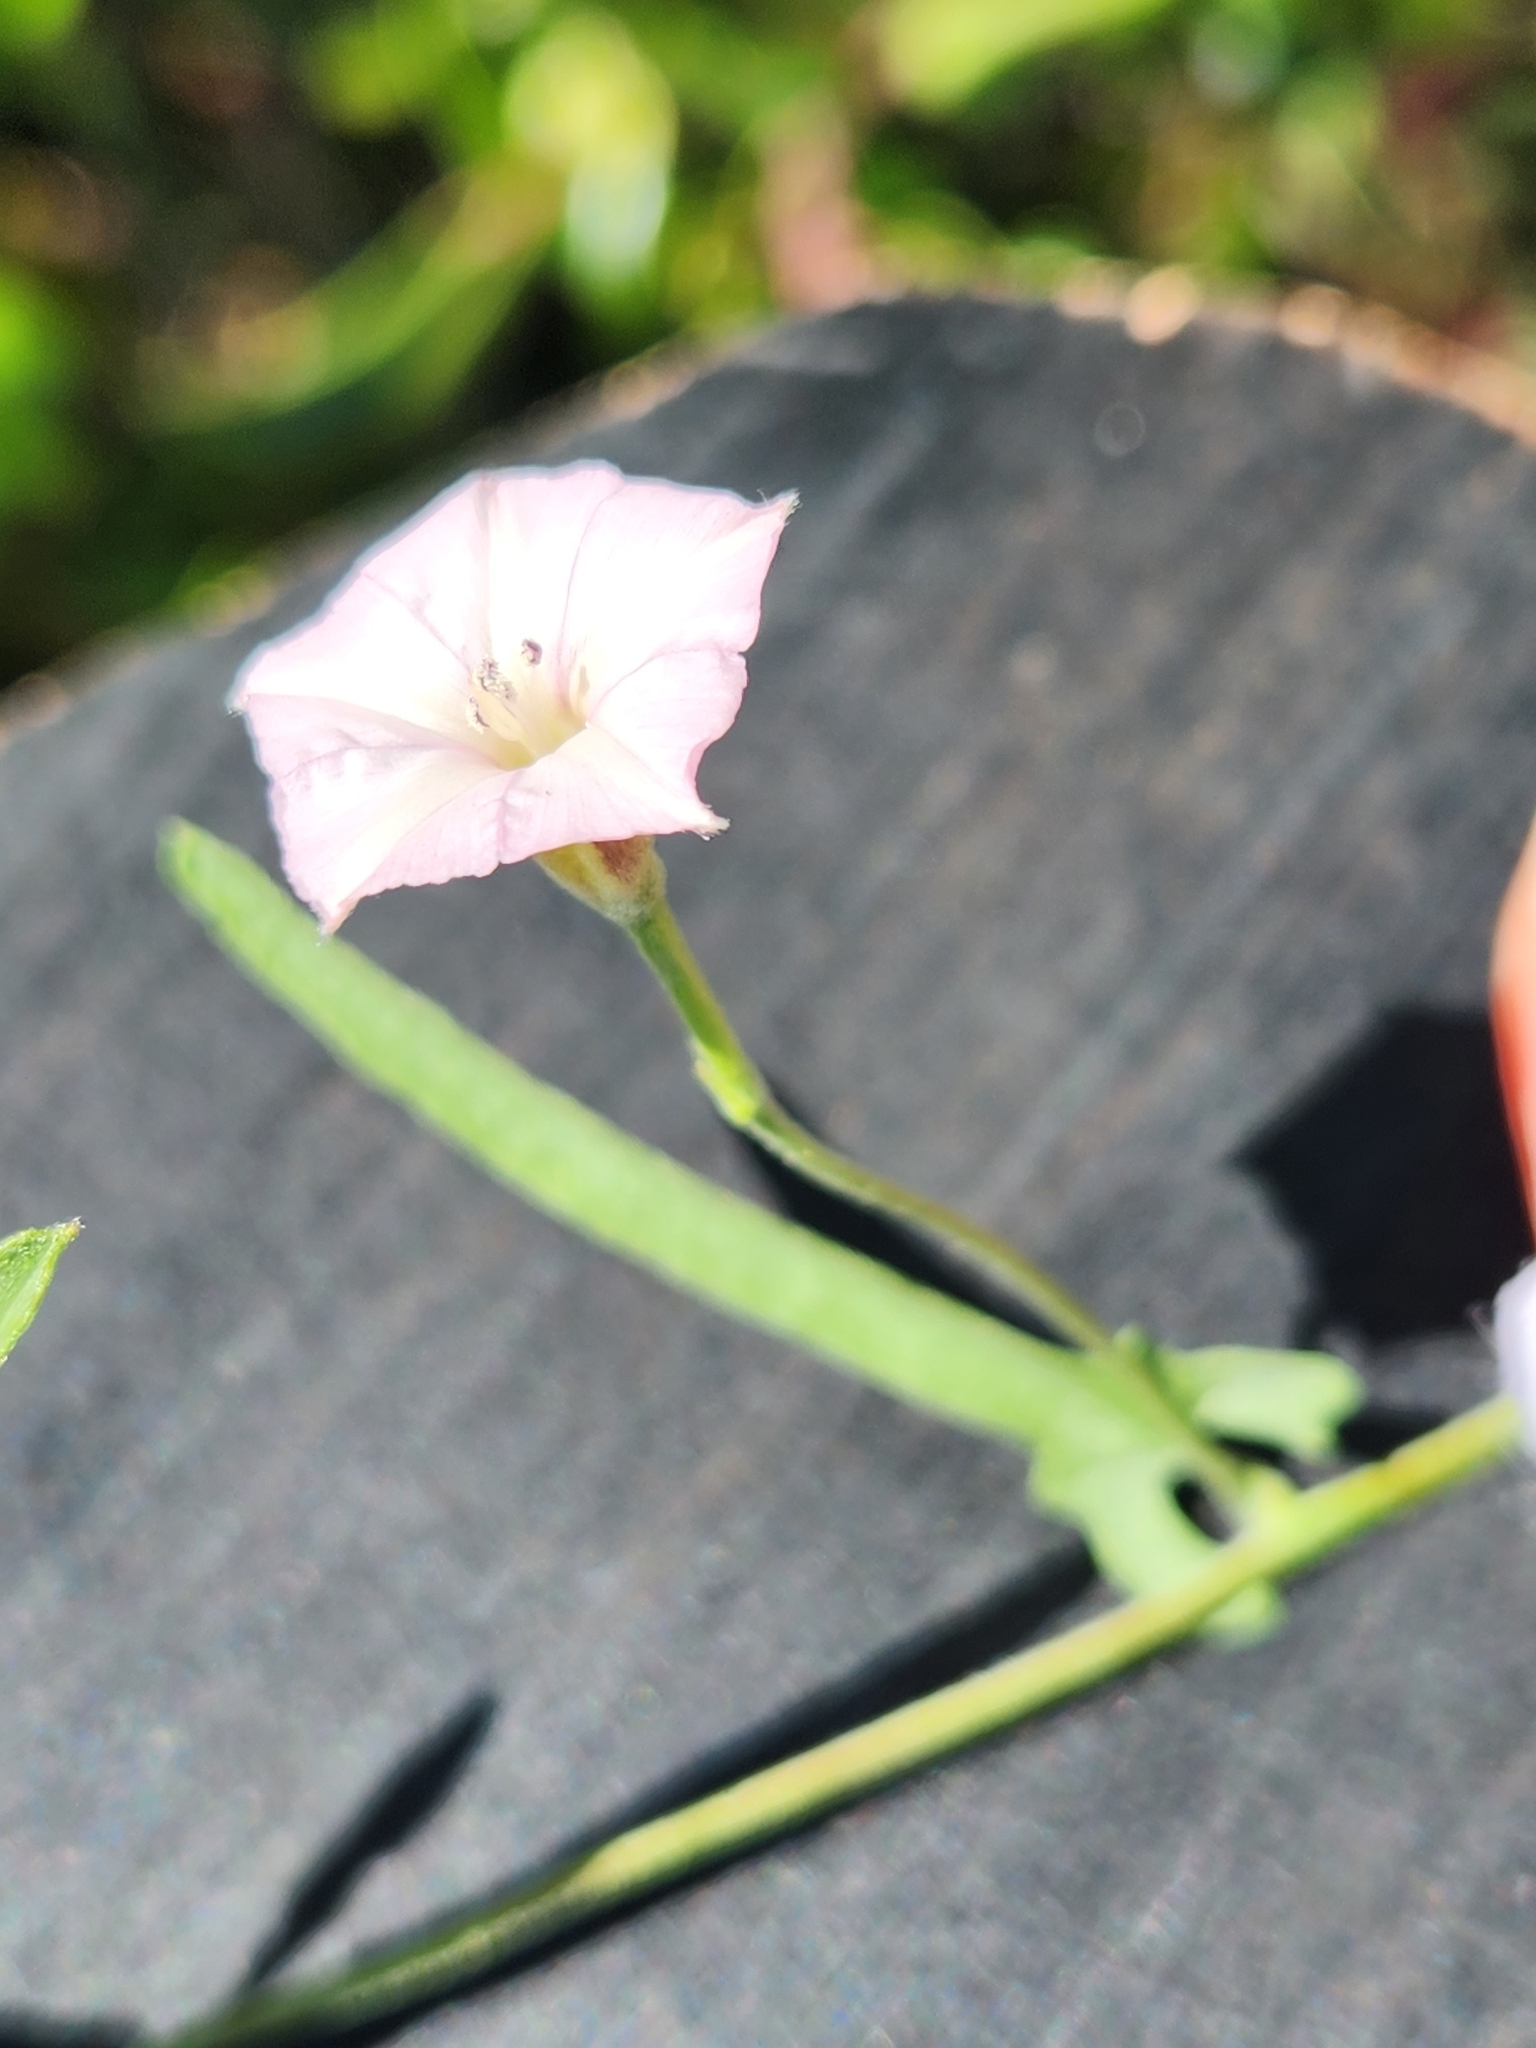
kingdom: Plantae
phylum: Tracheophyta
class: Magnoliopsida
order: Solanales
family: Convolvulaceae
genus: Convolvulus
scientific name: Convolvulus equitans
